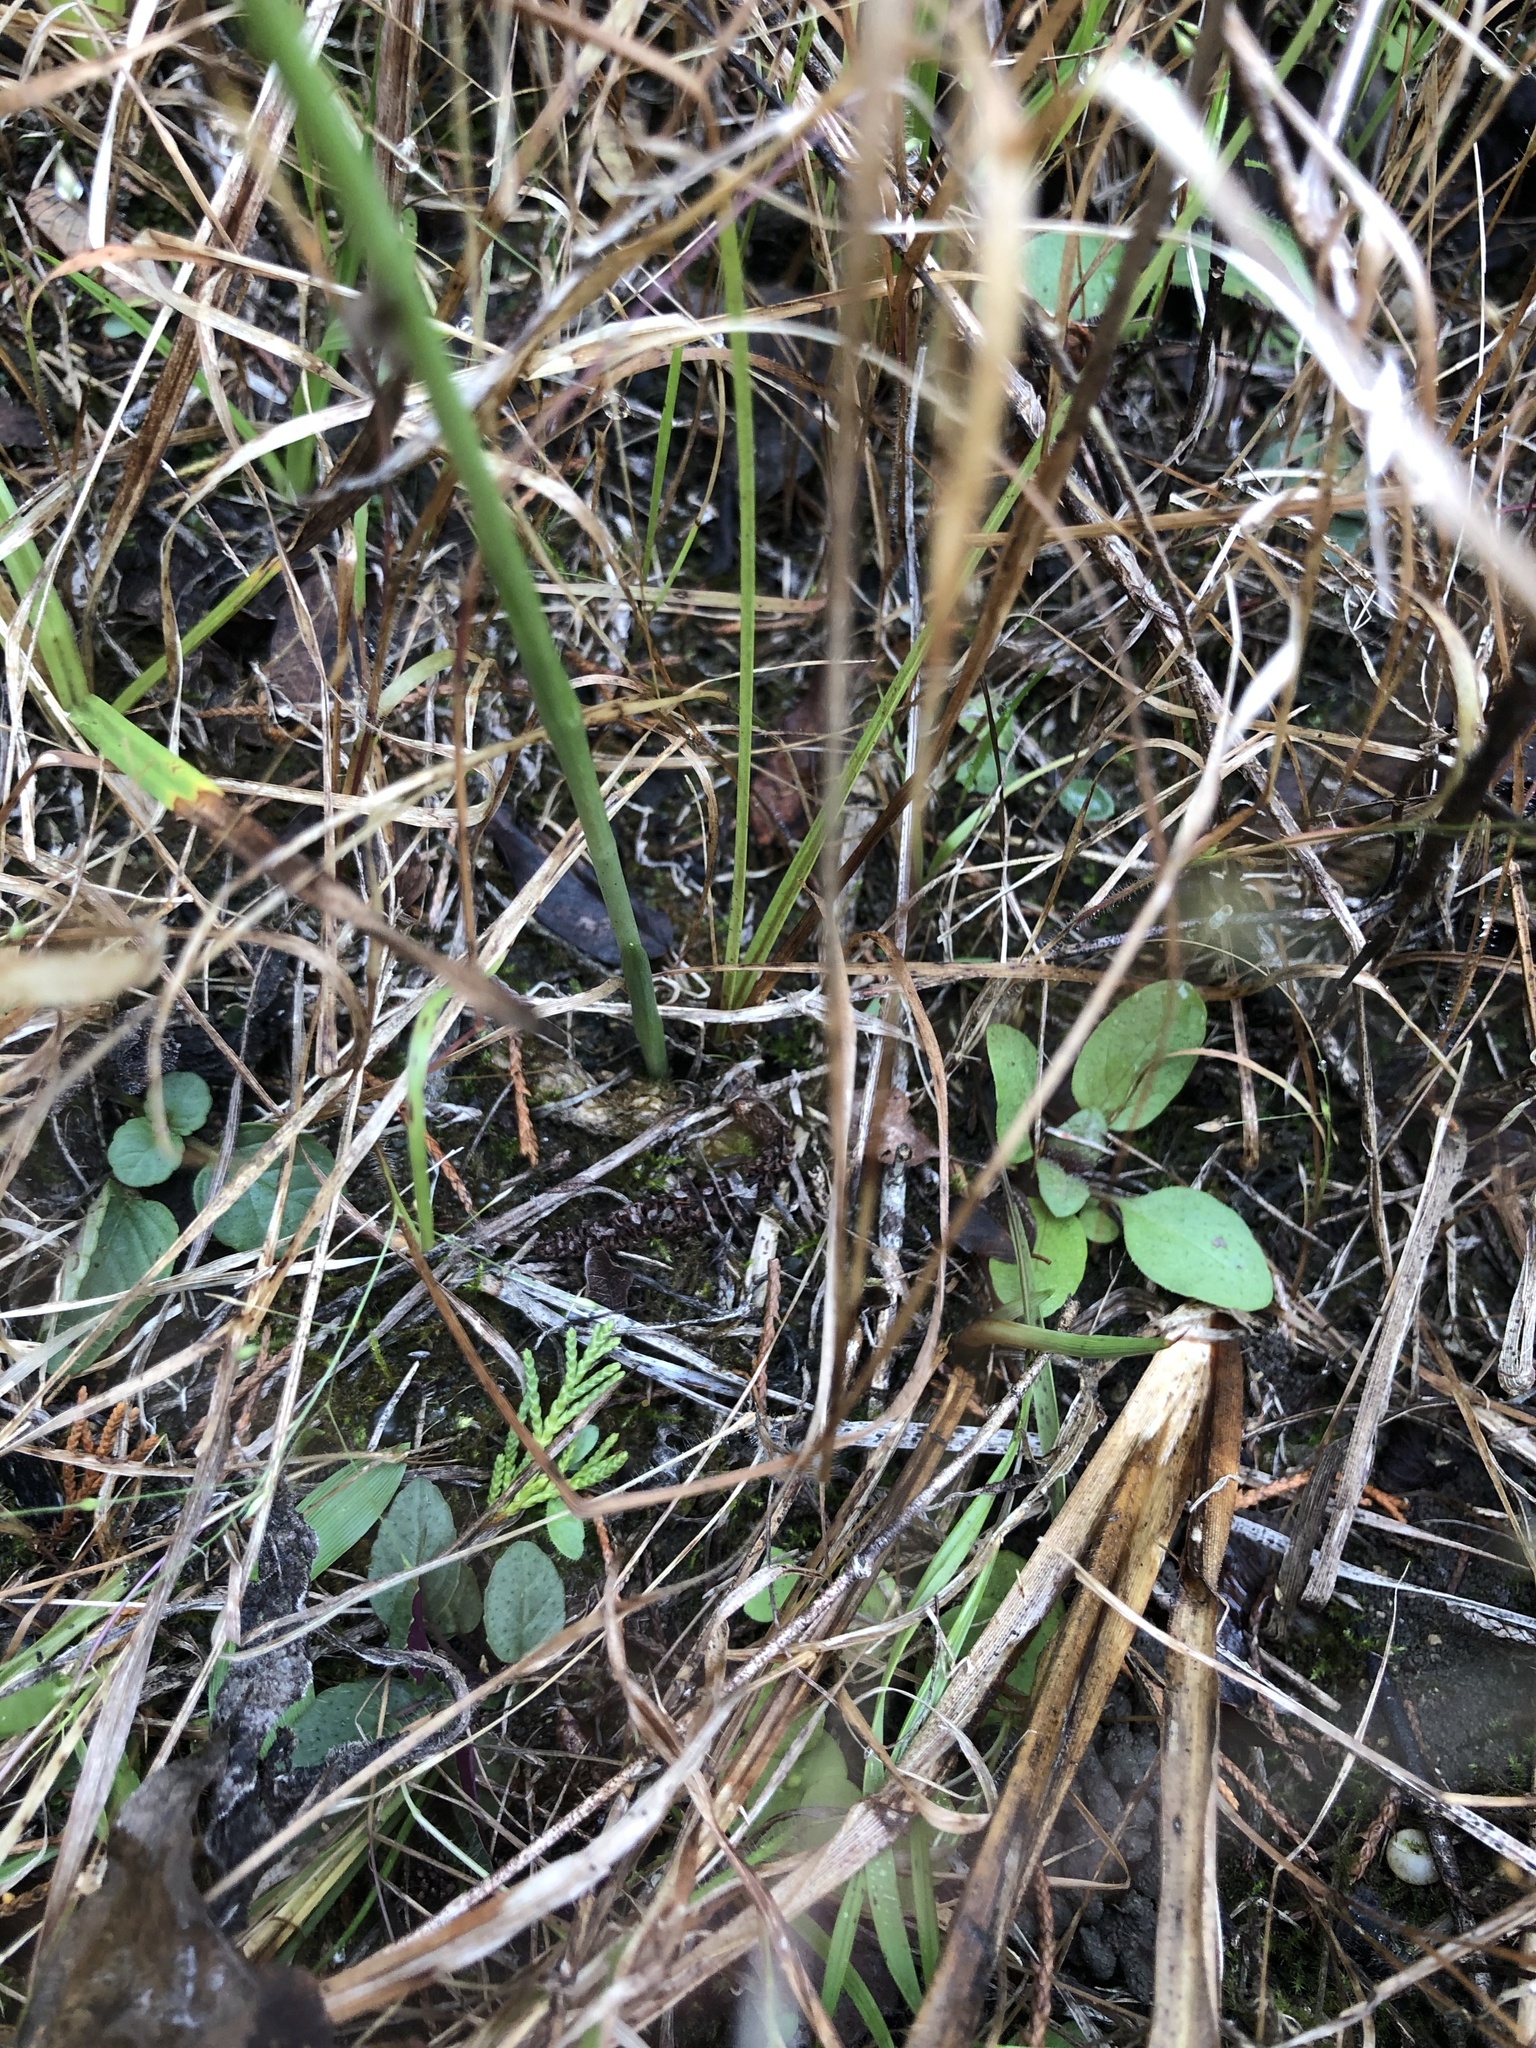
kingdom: Plantae
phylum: Tracheophyta
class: Liliopsida
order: Asparagales
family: Orchidaceae
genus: Spiranthes
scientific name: Spiranthes magnicamporum
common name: Great plains ladies'-tresses
